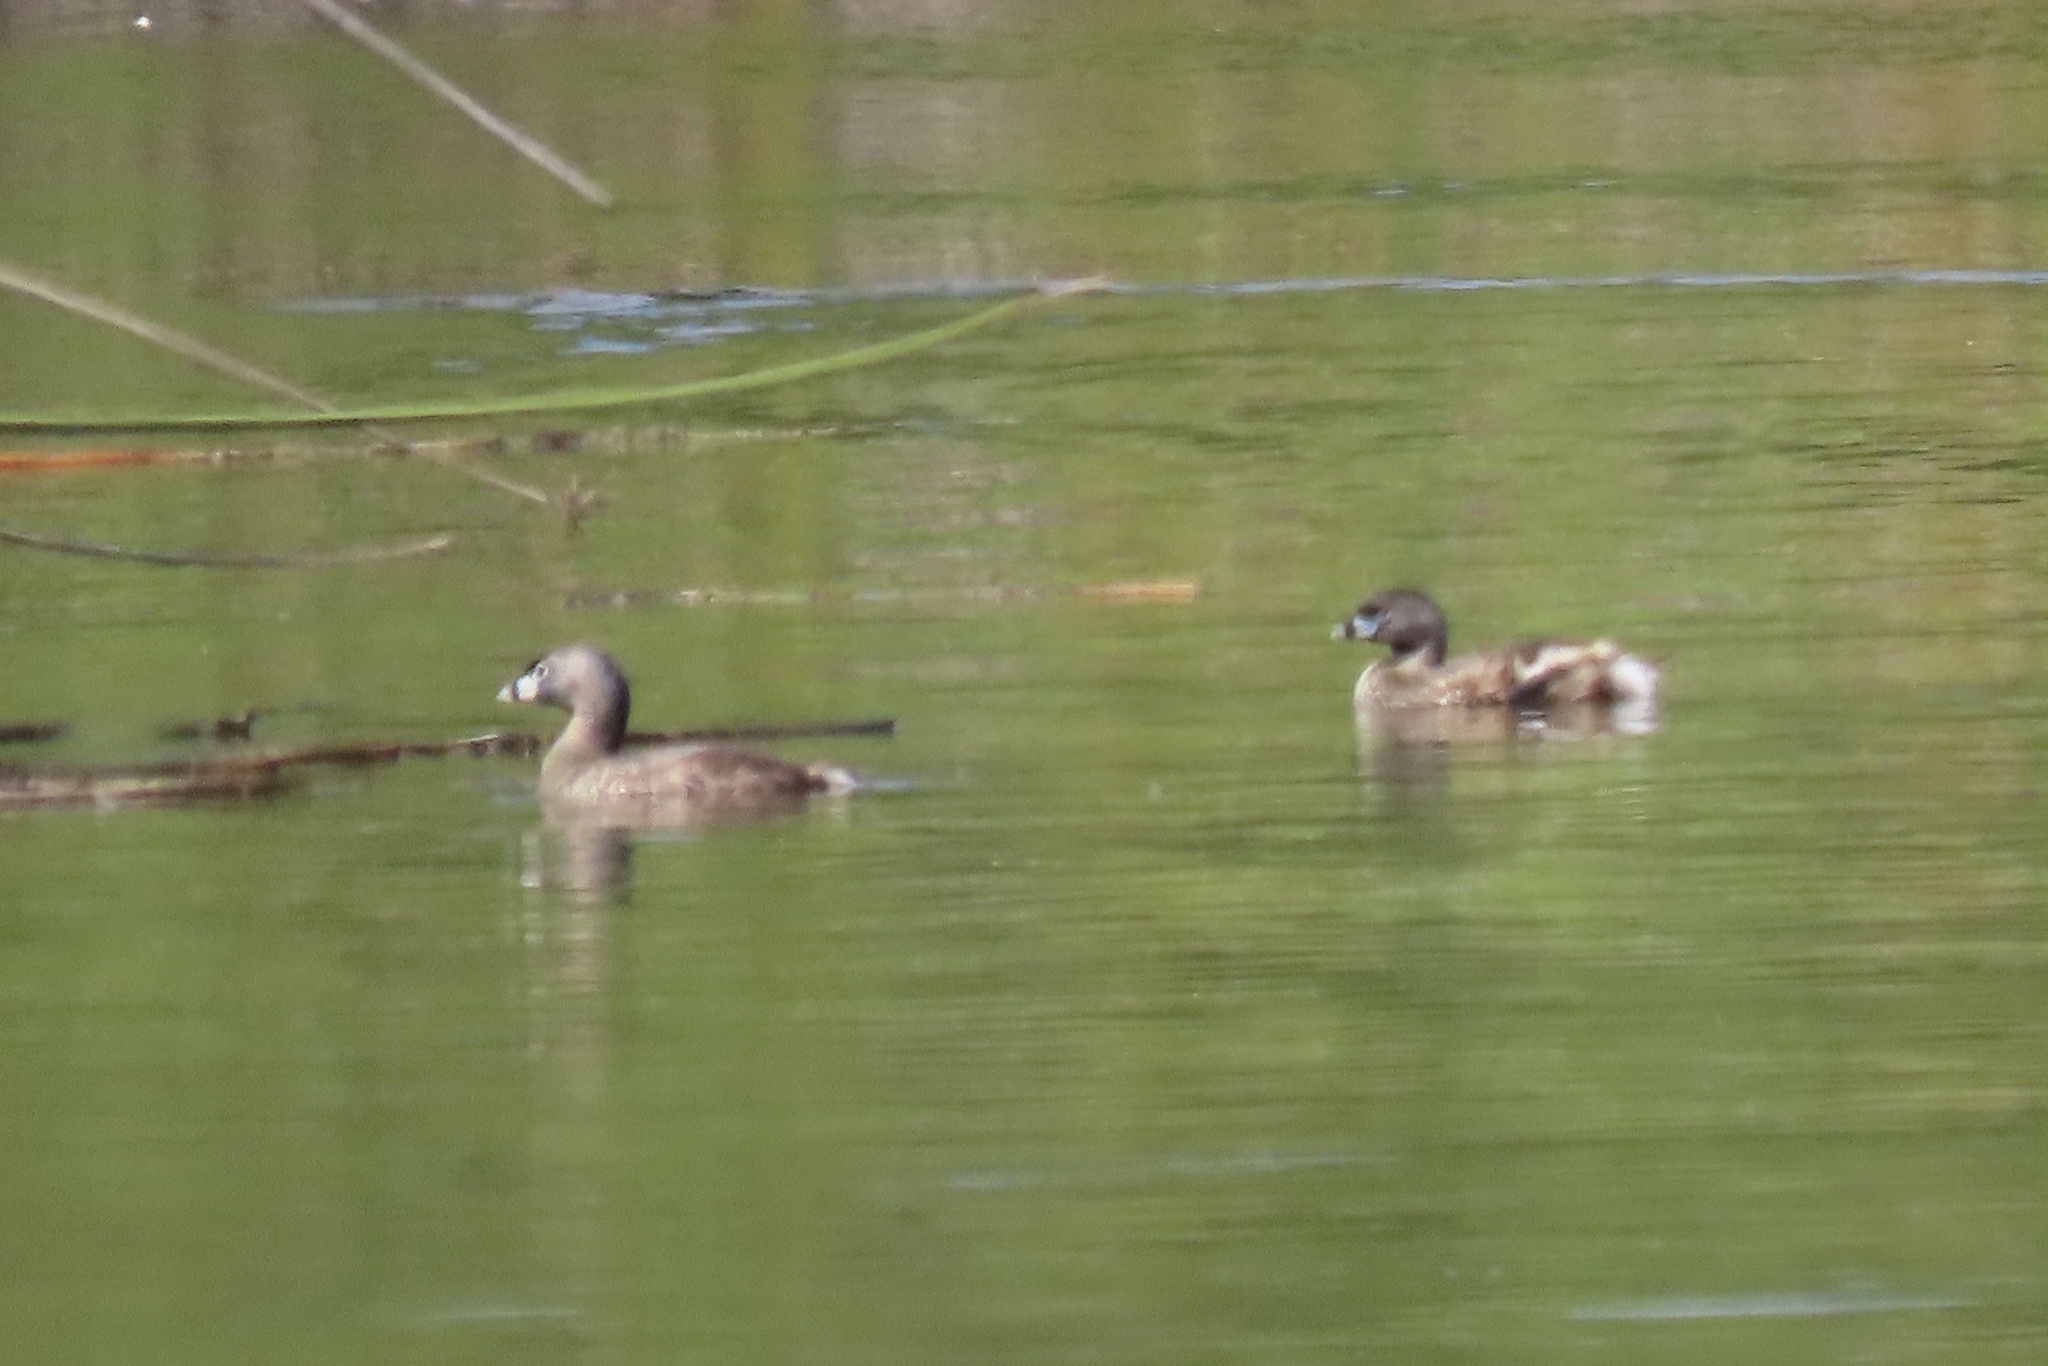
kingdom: Animalia
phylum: Chordata
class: Aves
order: Podicipediformes
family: Podicipedidae
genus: Podilymbus
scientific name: Podilymbus podiceps
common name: Pied-billed grebe
